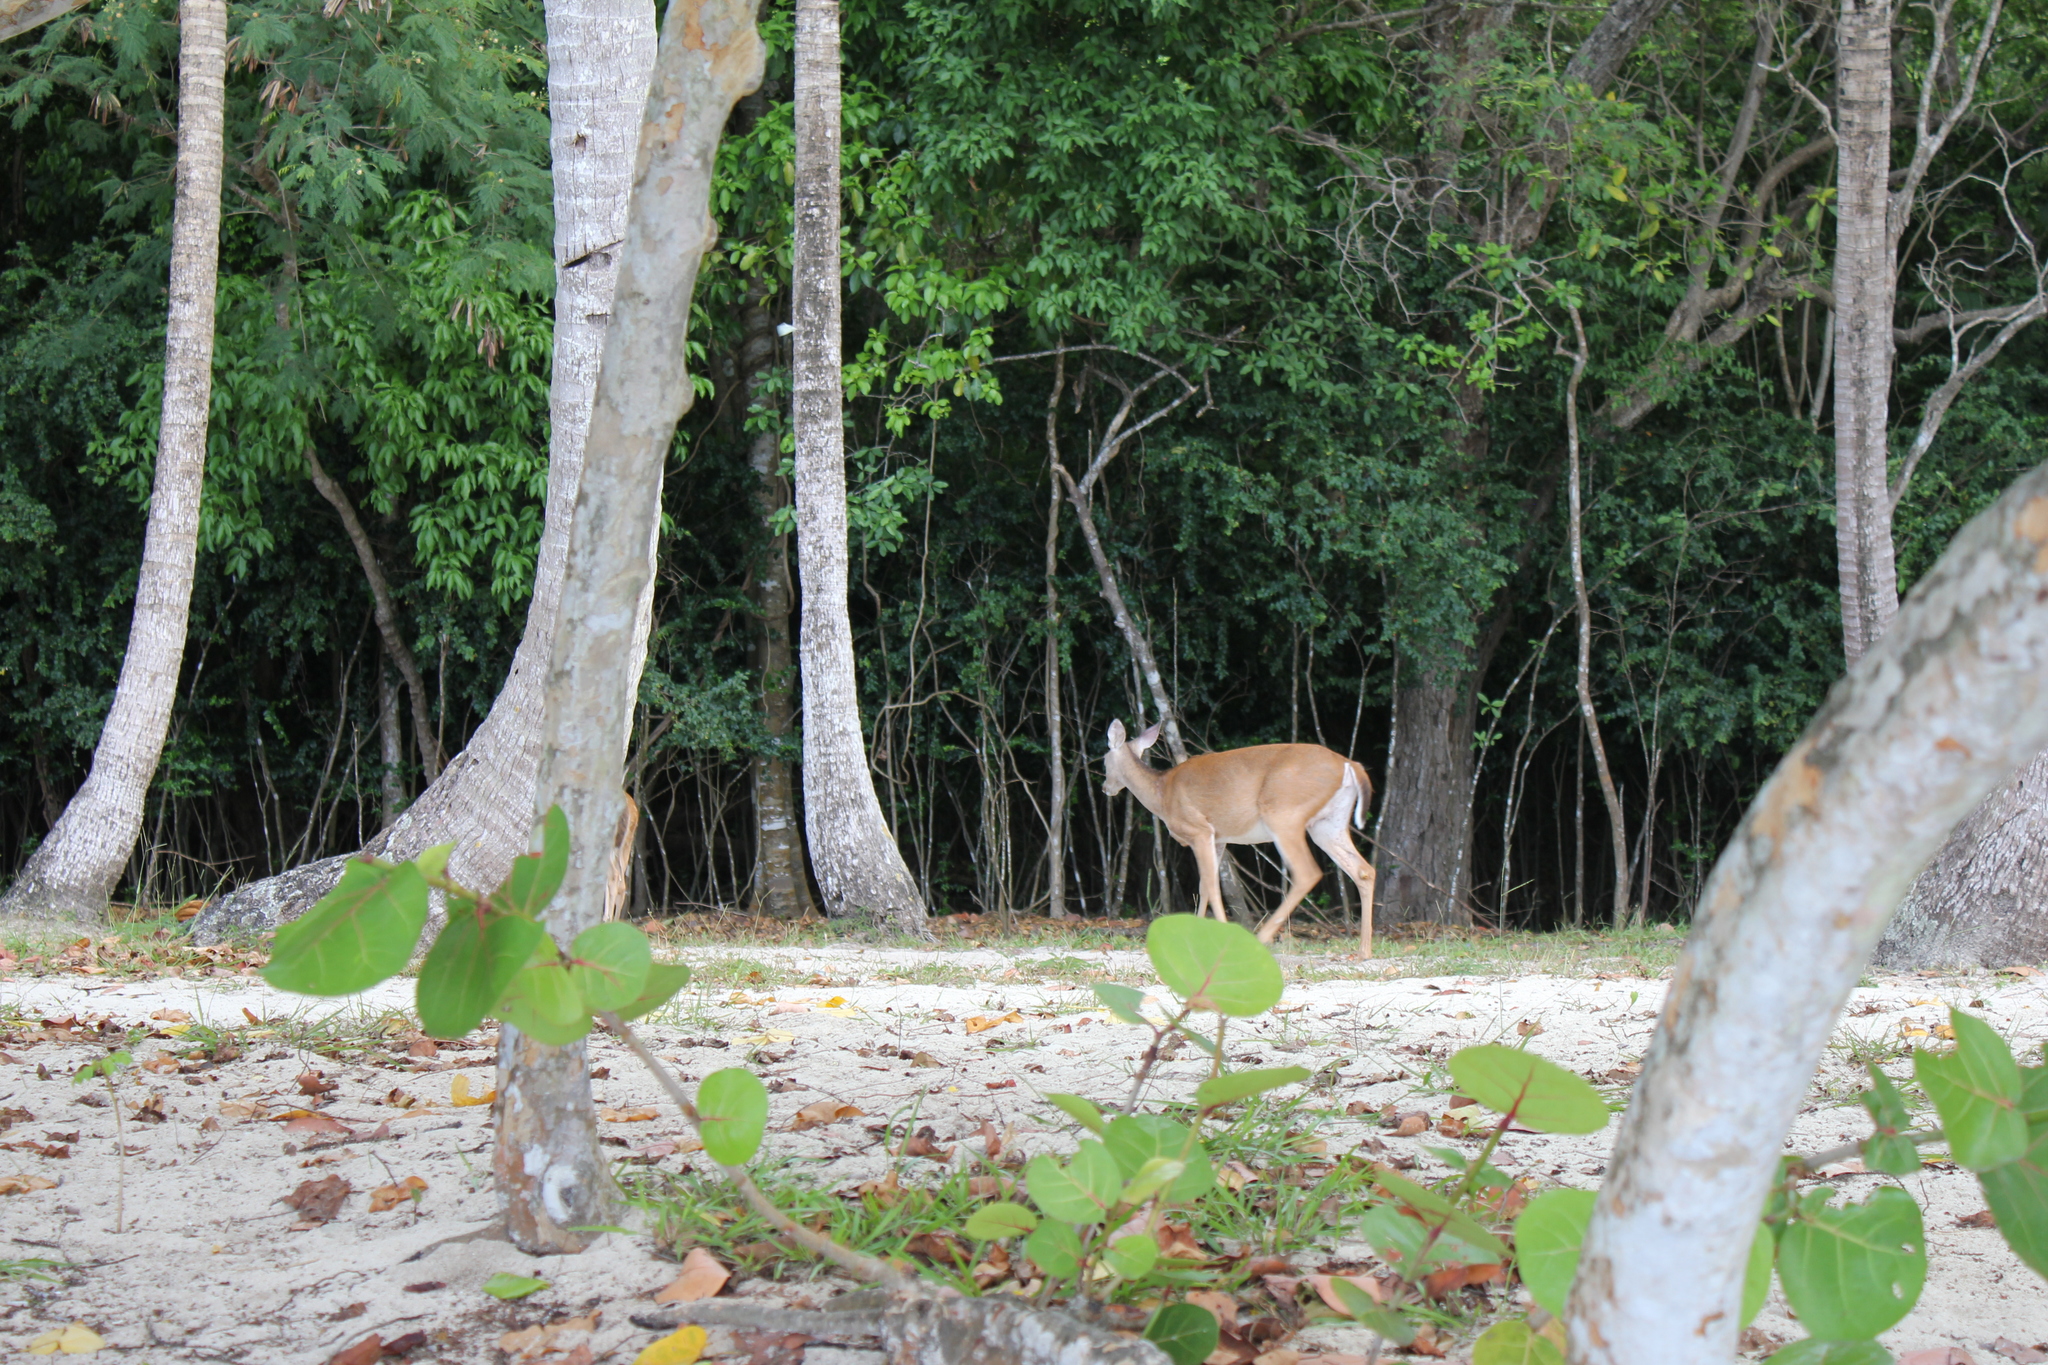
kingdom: Animalia
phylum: Chordata
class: Mammalia
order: Artiodactyla
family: Cervidae
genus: Odocoileus
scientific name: Odocoileus virginianus
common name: White-tailed deer
